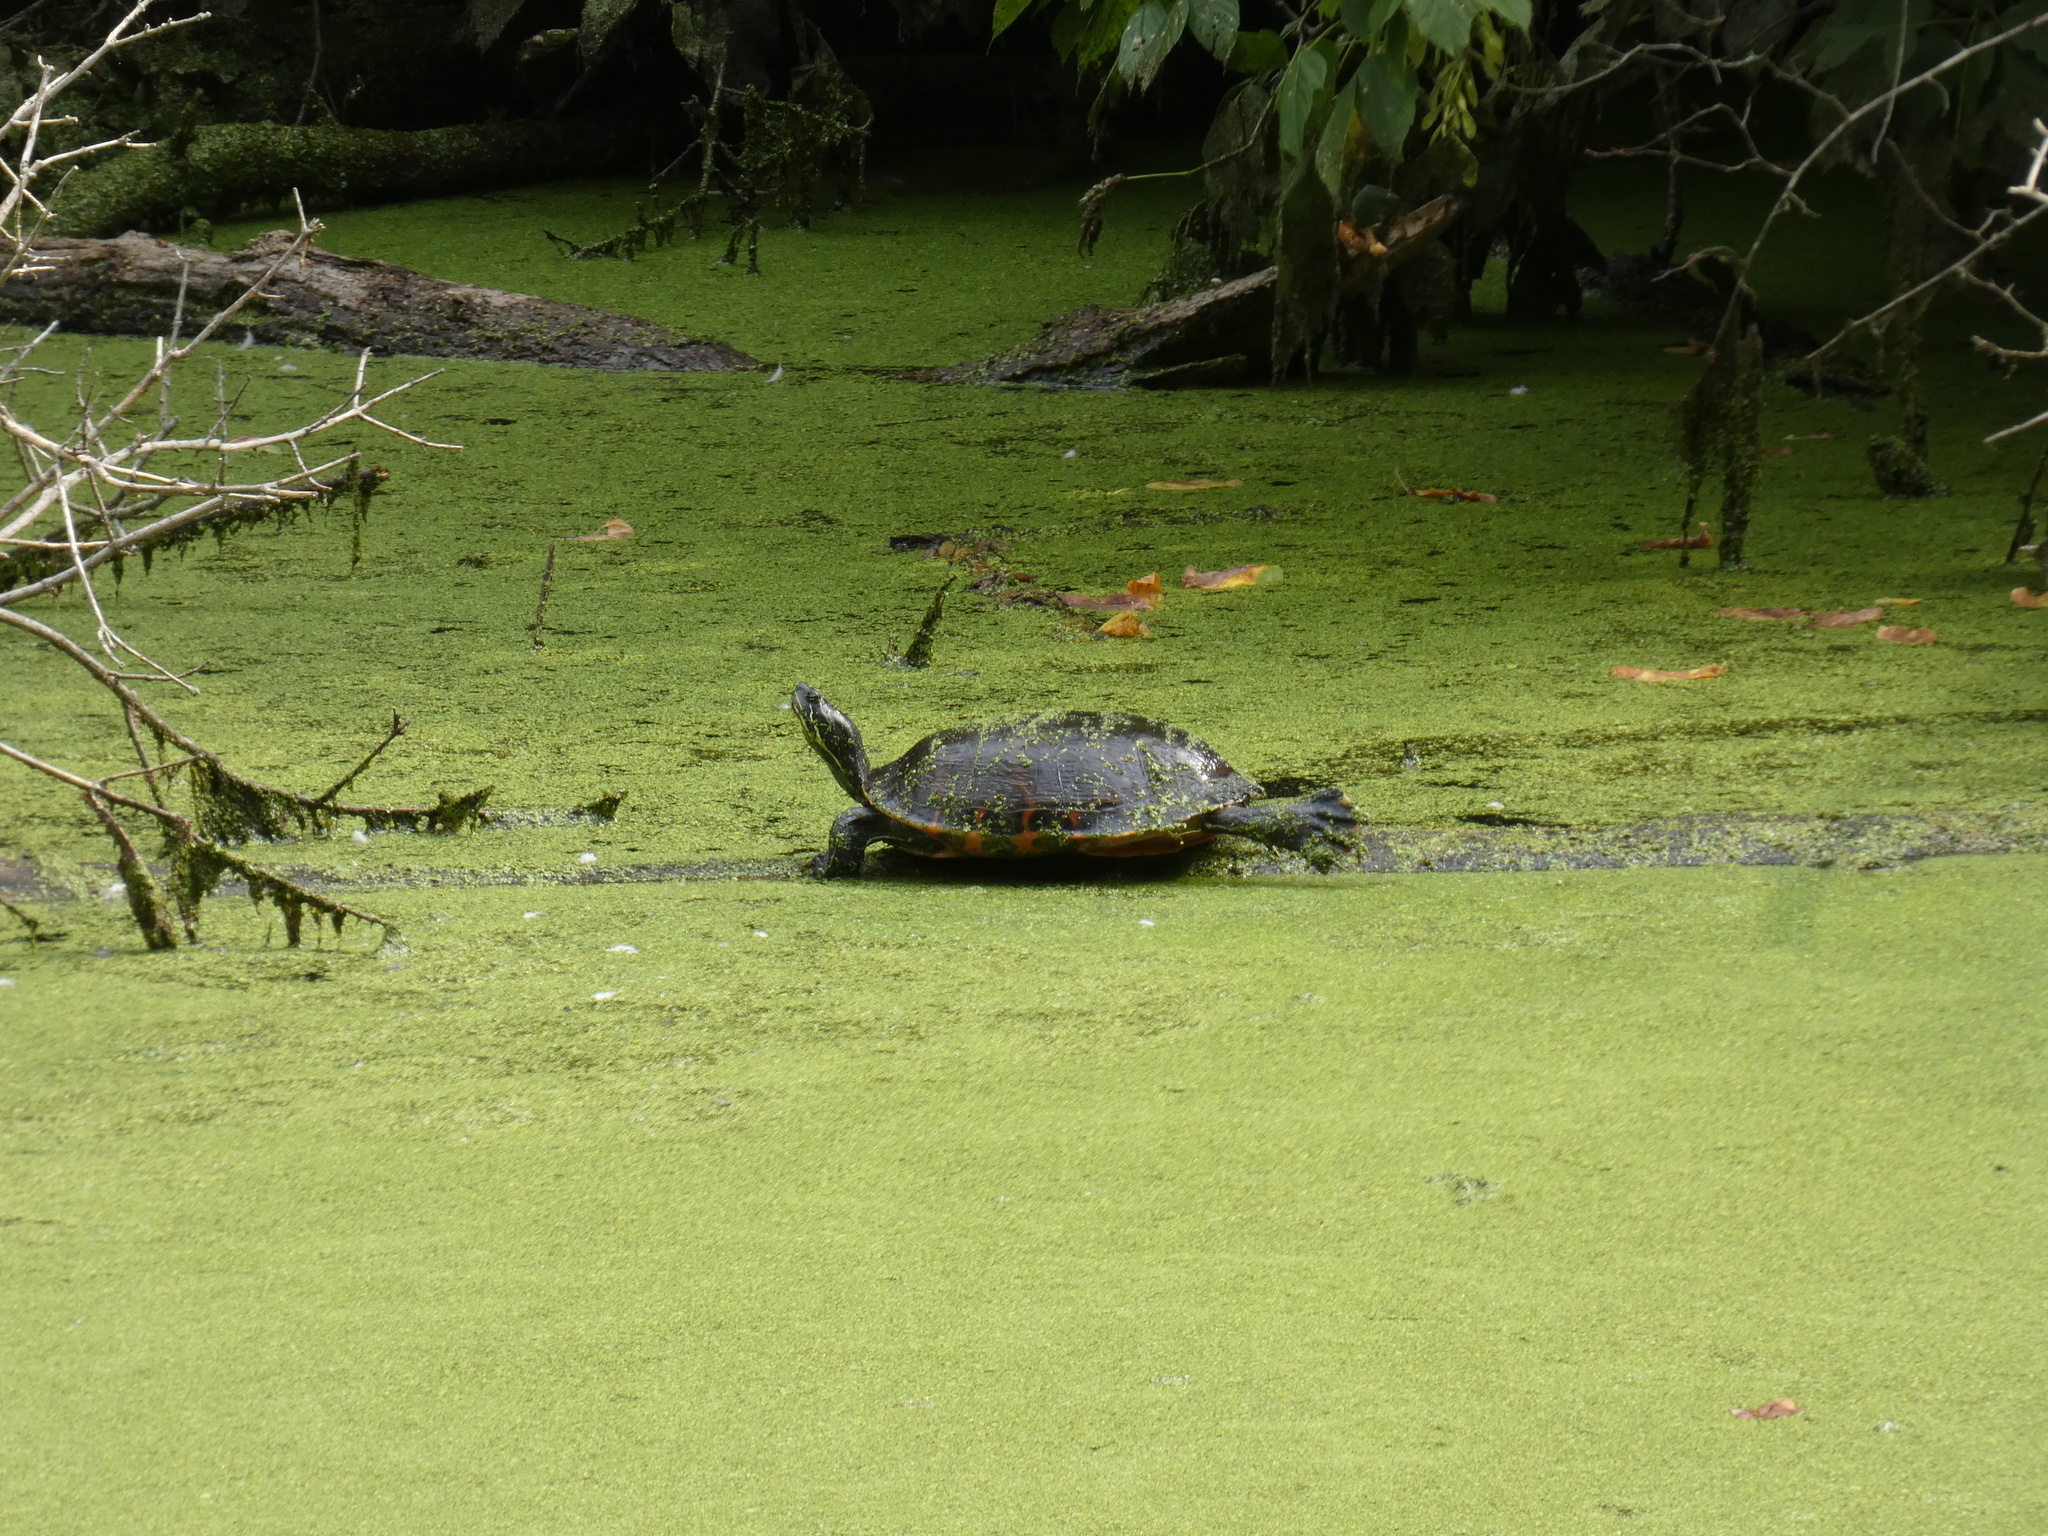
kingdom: Animalia
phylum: Chordata
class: Testudines
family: Emydidae
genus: Pseudemys
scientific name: Pseudemys rubriventris
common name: American red-bellied turtle
